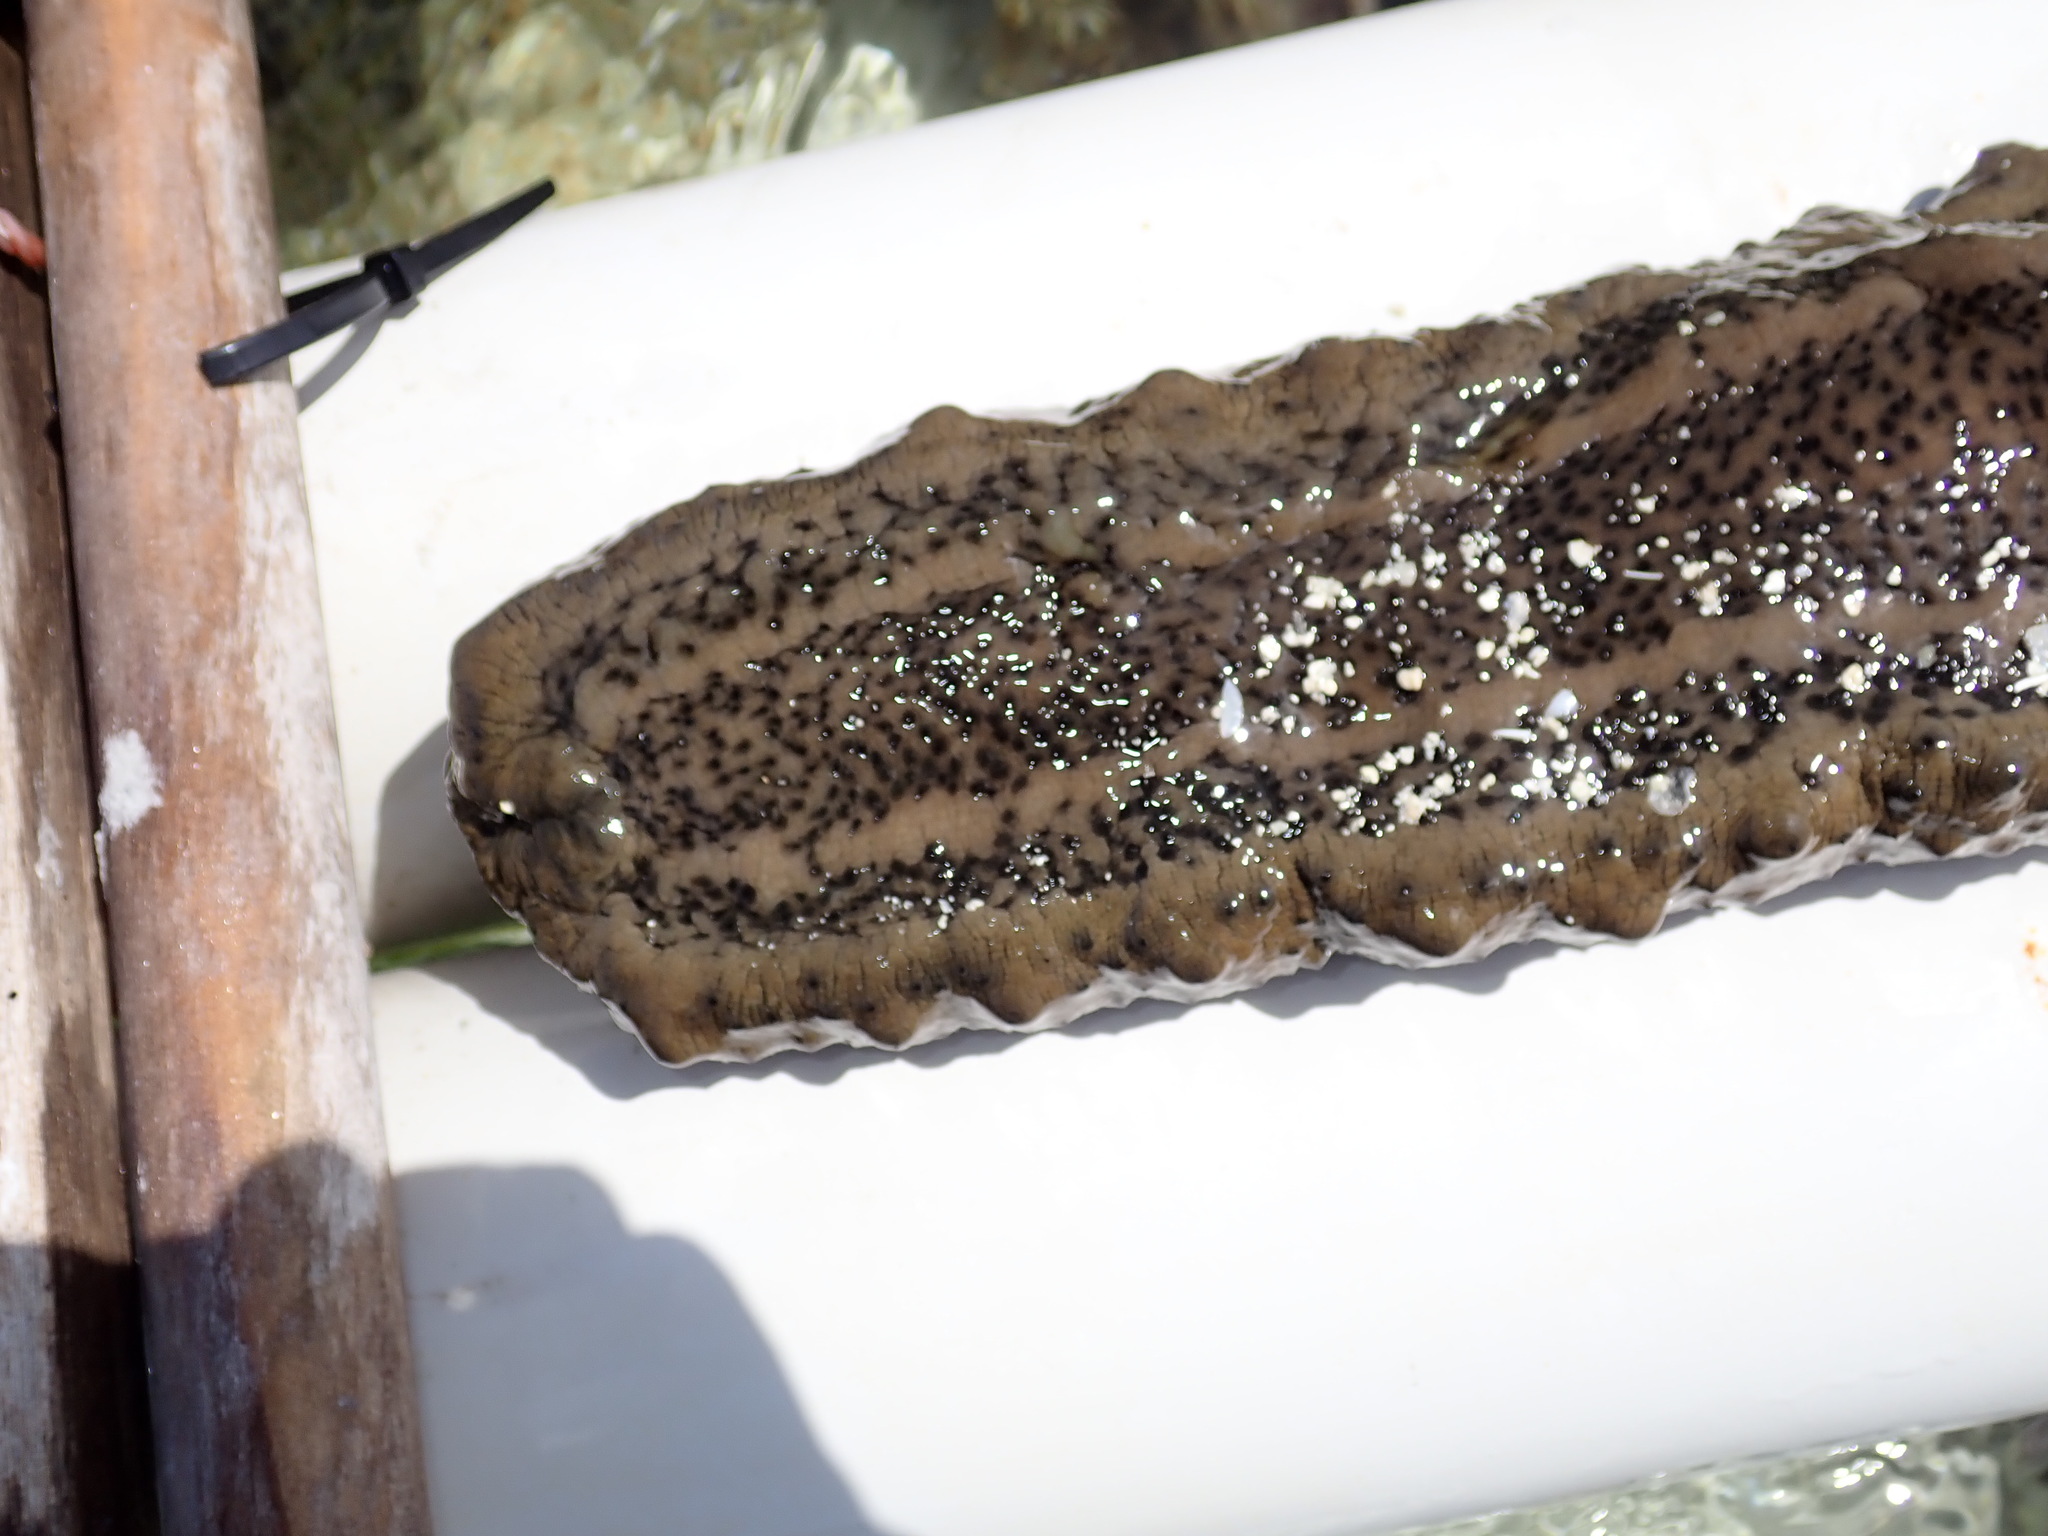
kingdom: Animalia
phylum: Echinodermata
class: Holothuroidea
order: Synallactida
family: Stichopodidae
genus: Stichopus
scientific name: Stichopus herrmanni
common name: Curryfish
